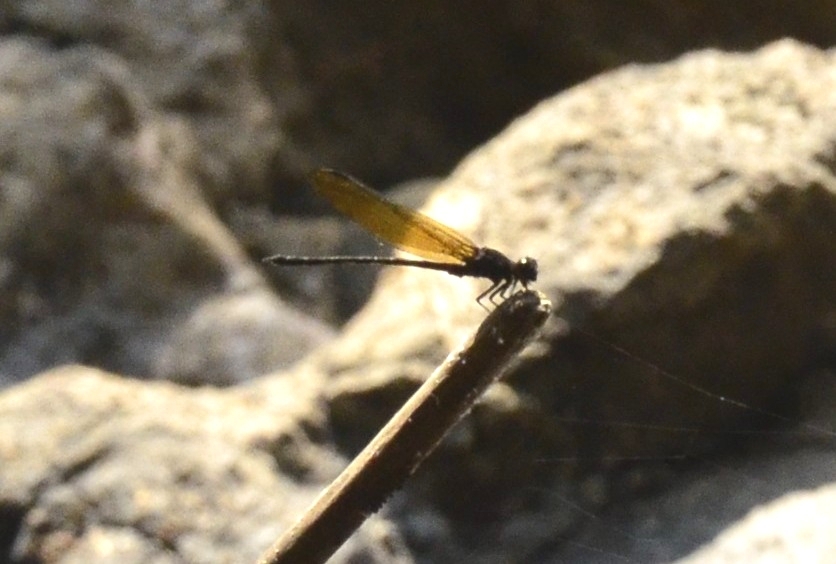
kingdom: Animalia
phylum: Arthropoda
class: Insecta
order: Odonata
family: Euphaeidae
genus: Dysphaea
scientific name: Dysphaea ethela
